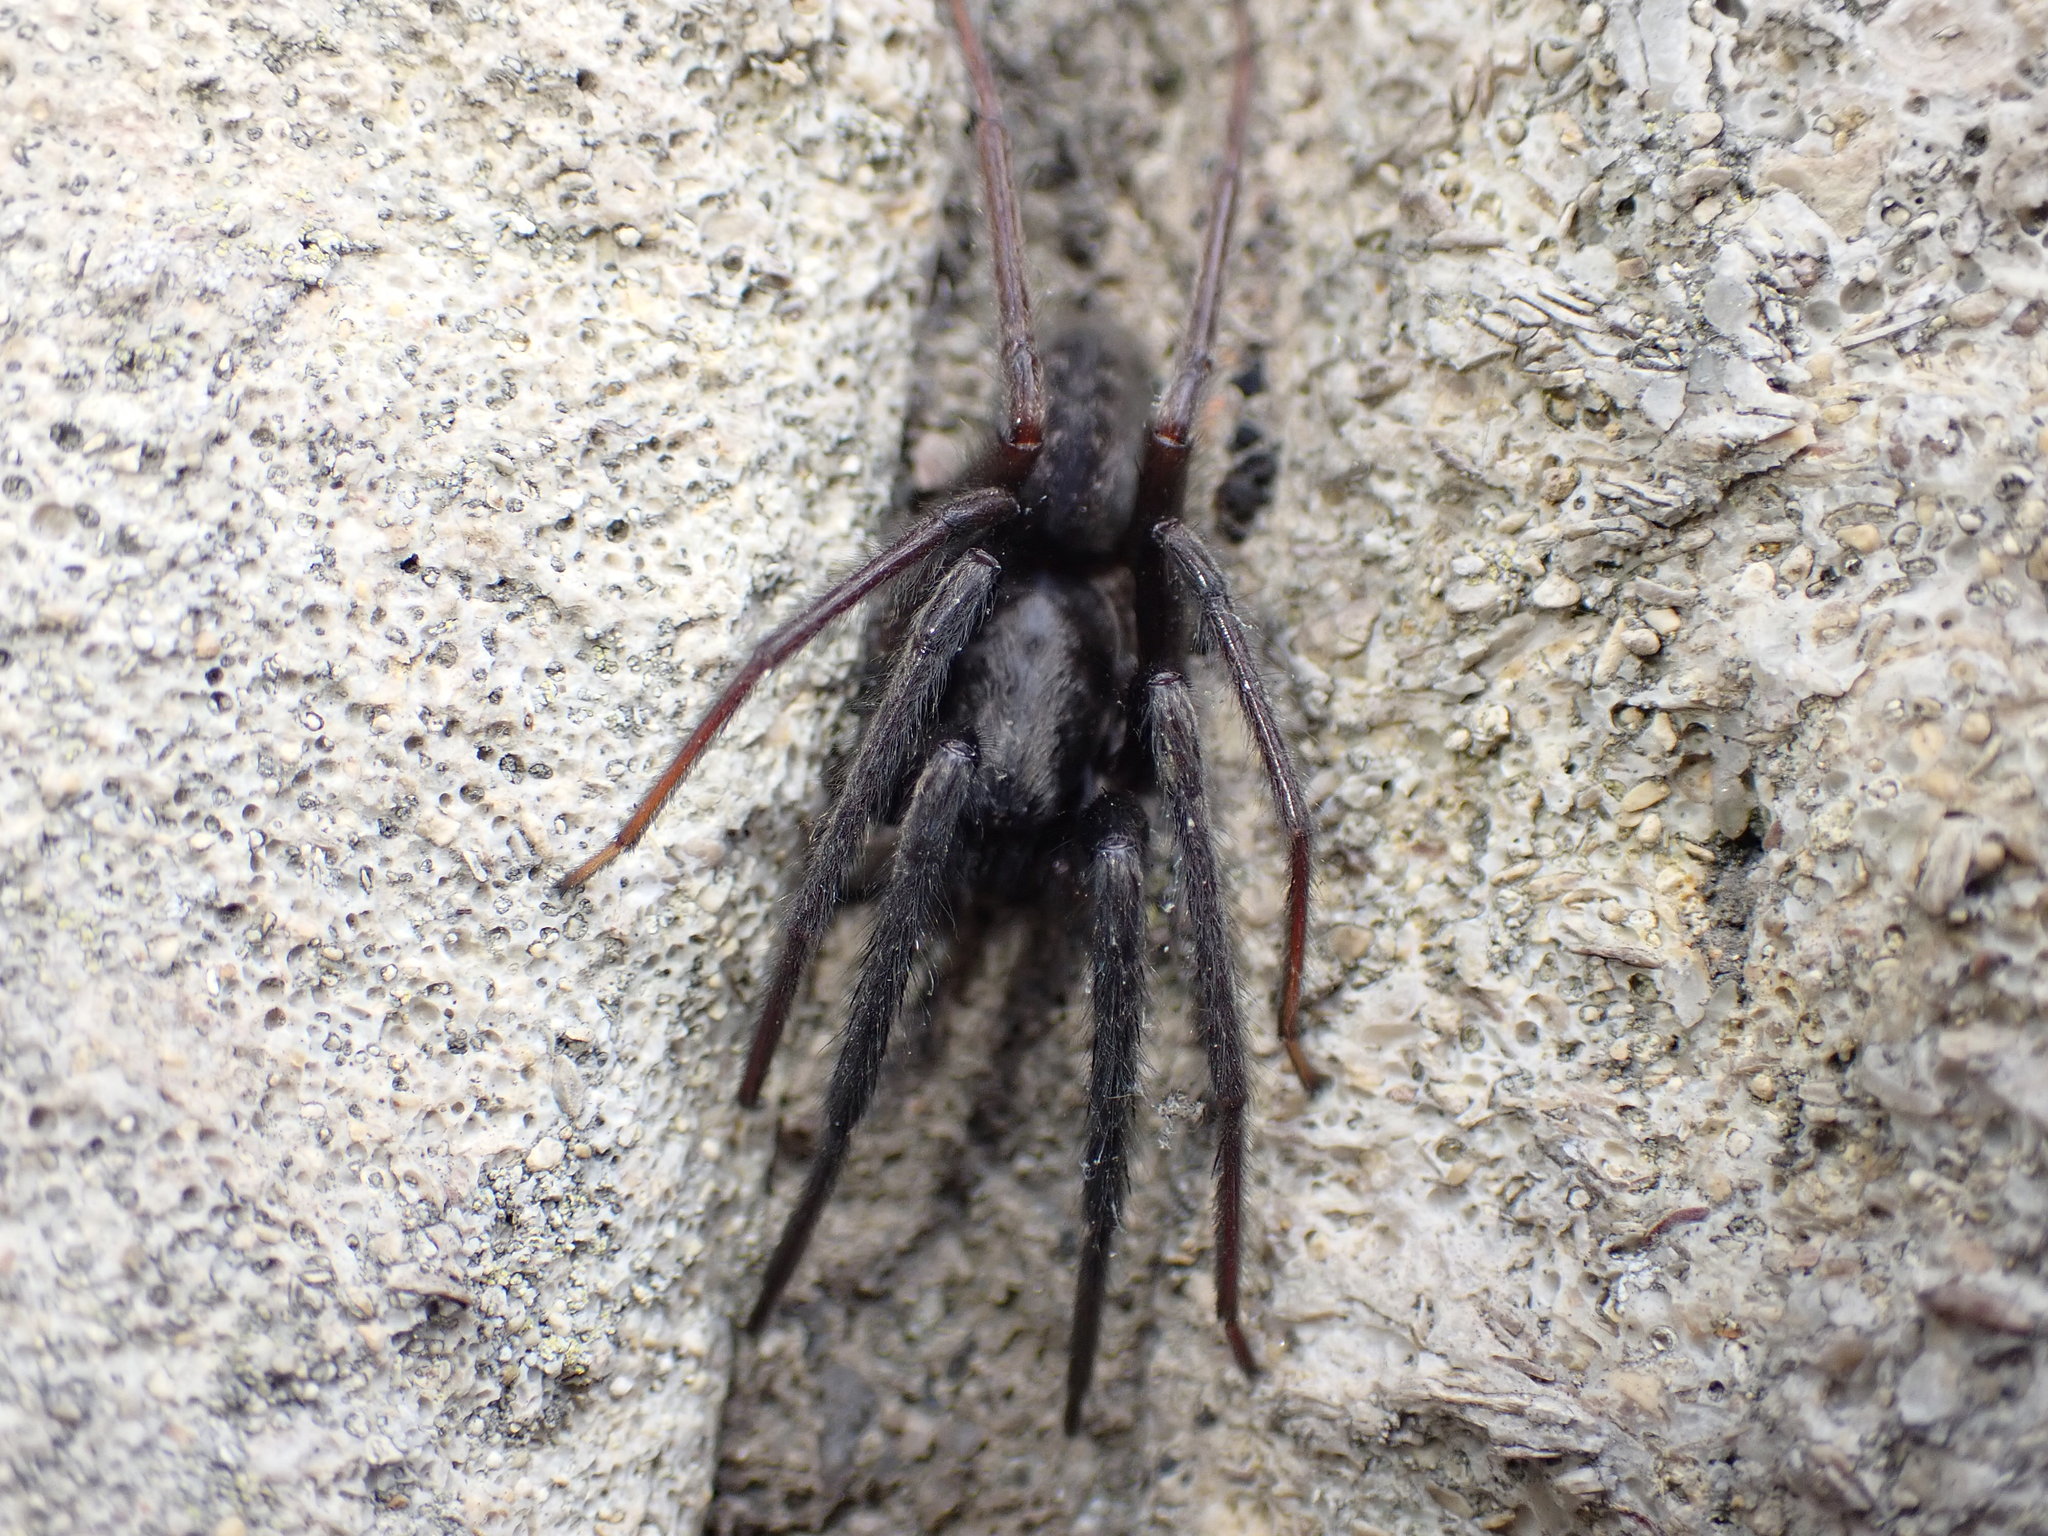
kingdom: Animalia
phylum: Arthropoda
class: Arachnida
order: Araneae
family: Segestriidae
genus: Segestria
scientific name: Segestria florentina
